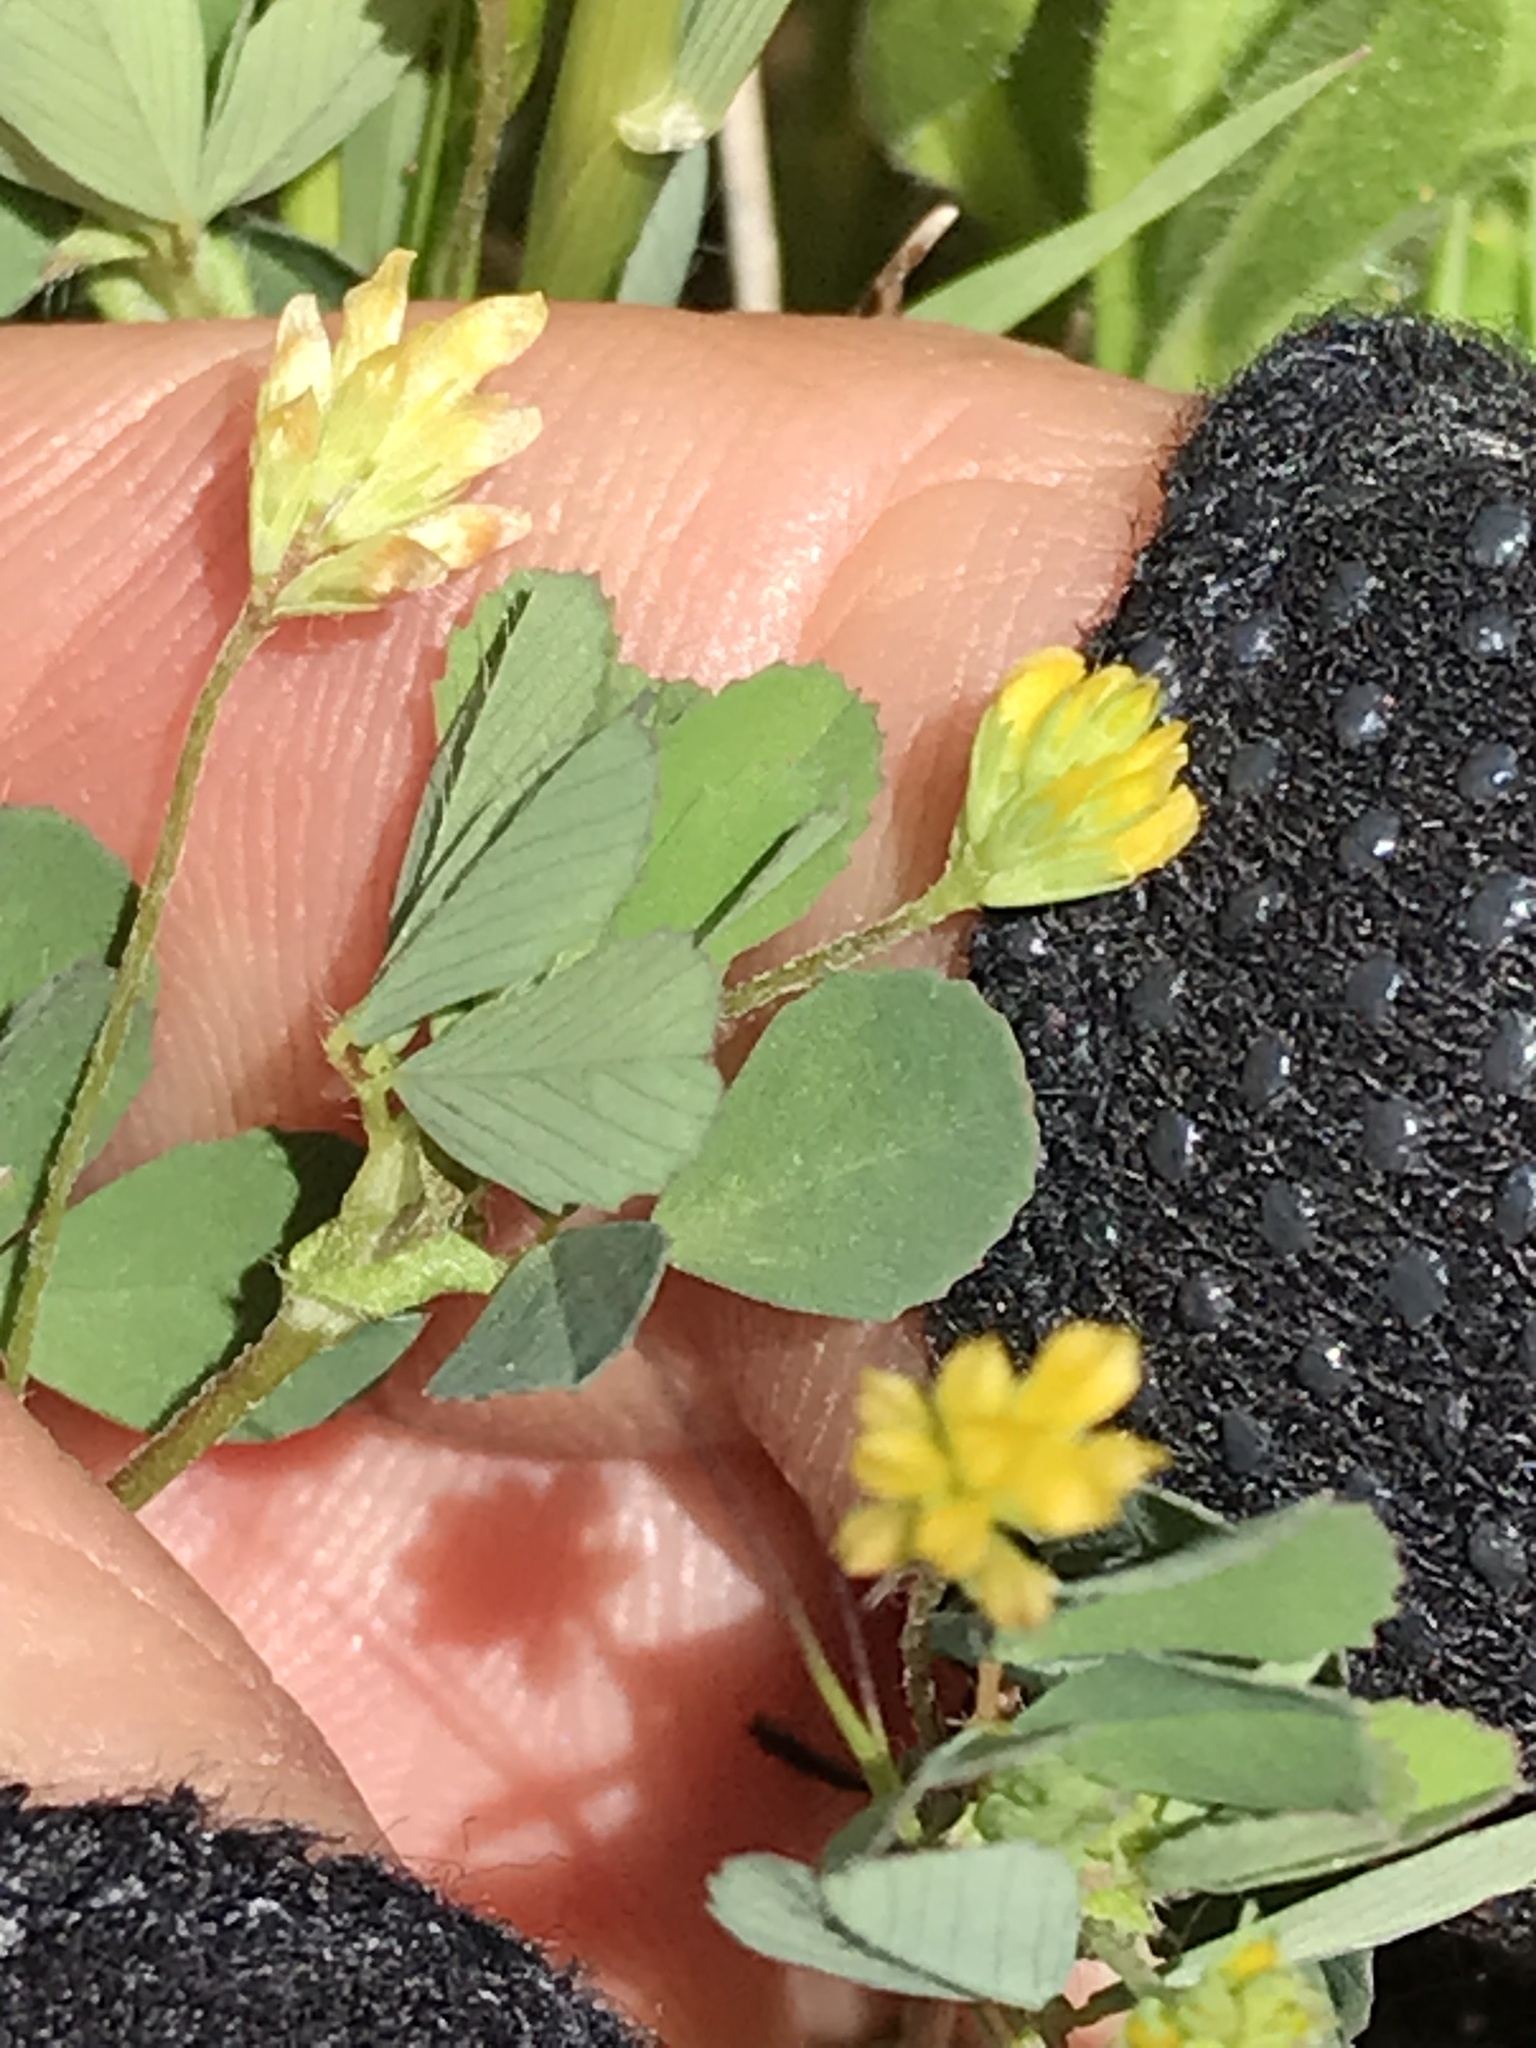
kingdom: Plantae
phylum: Tracheophyta
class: Magnoliopsida
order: Fabales
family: Fabaceae
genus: Trifolium
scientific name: Trifolium dubium
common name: Suckling clover
